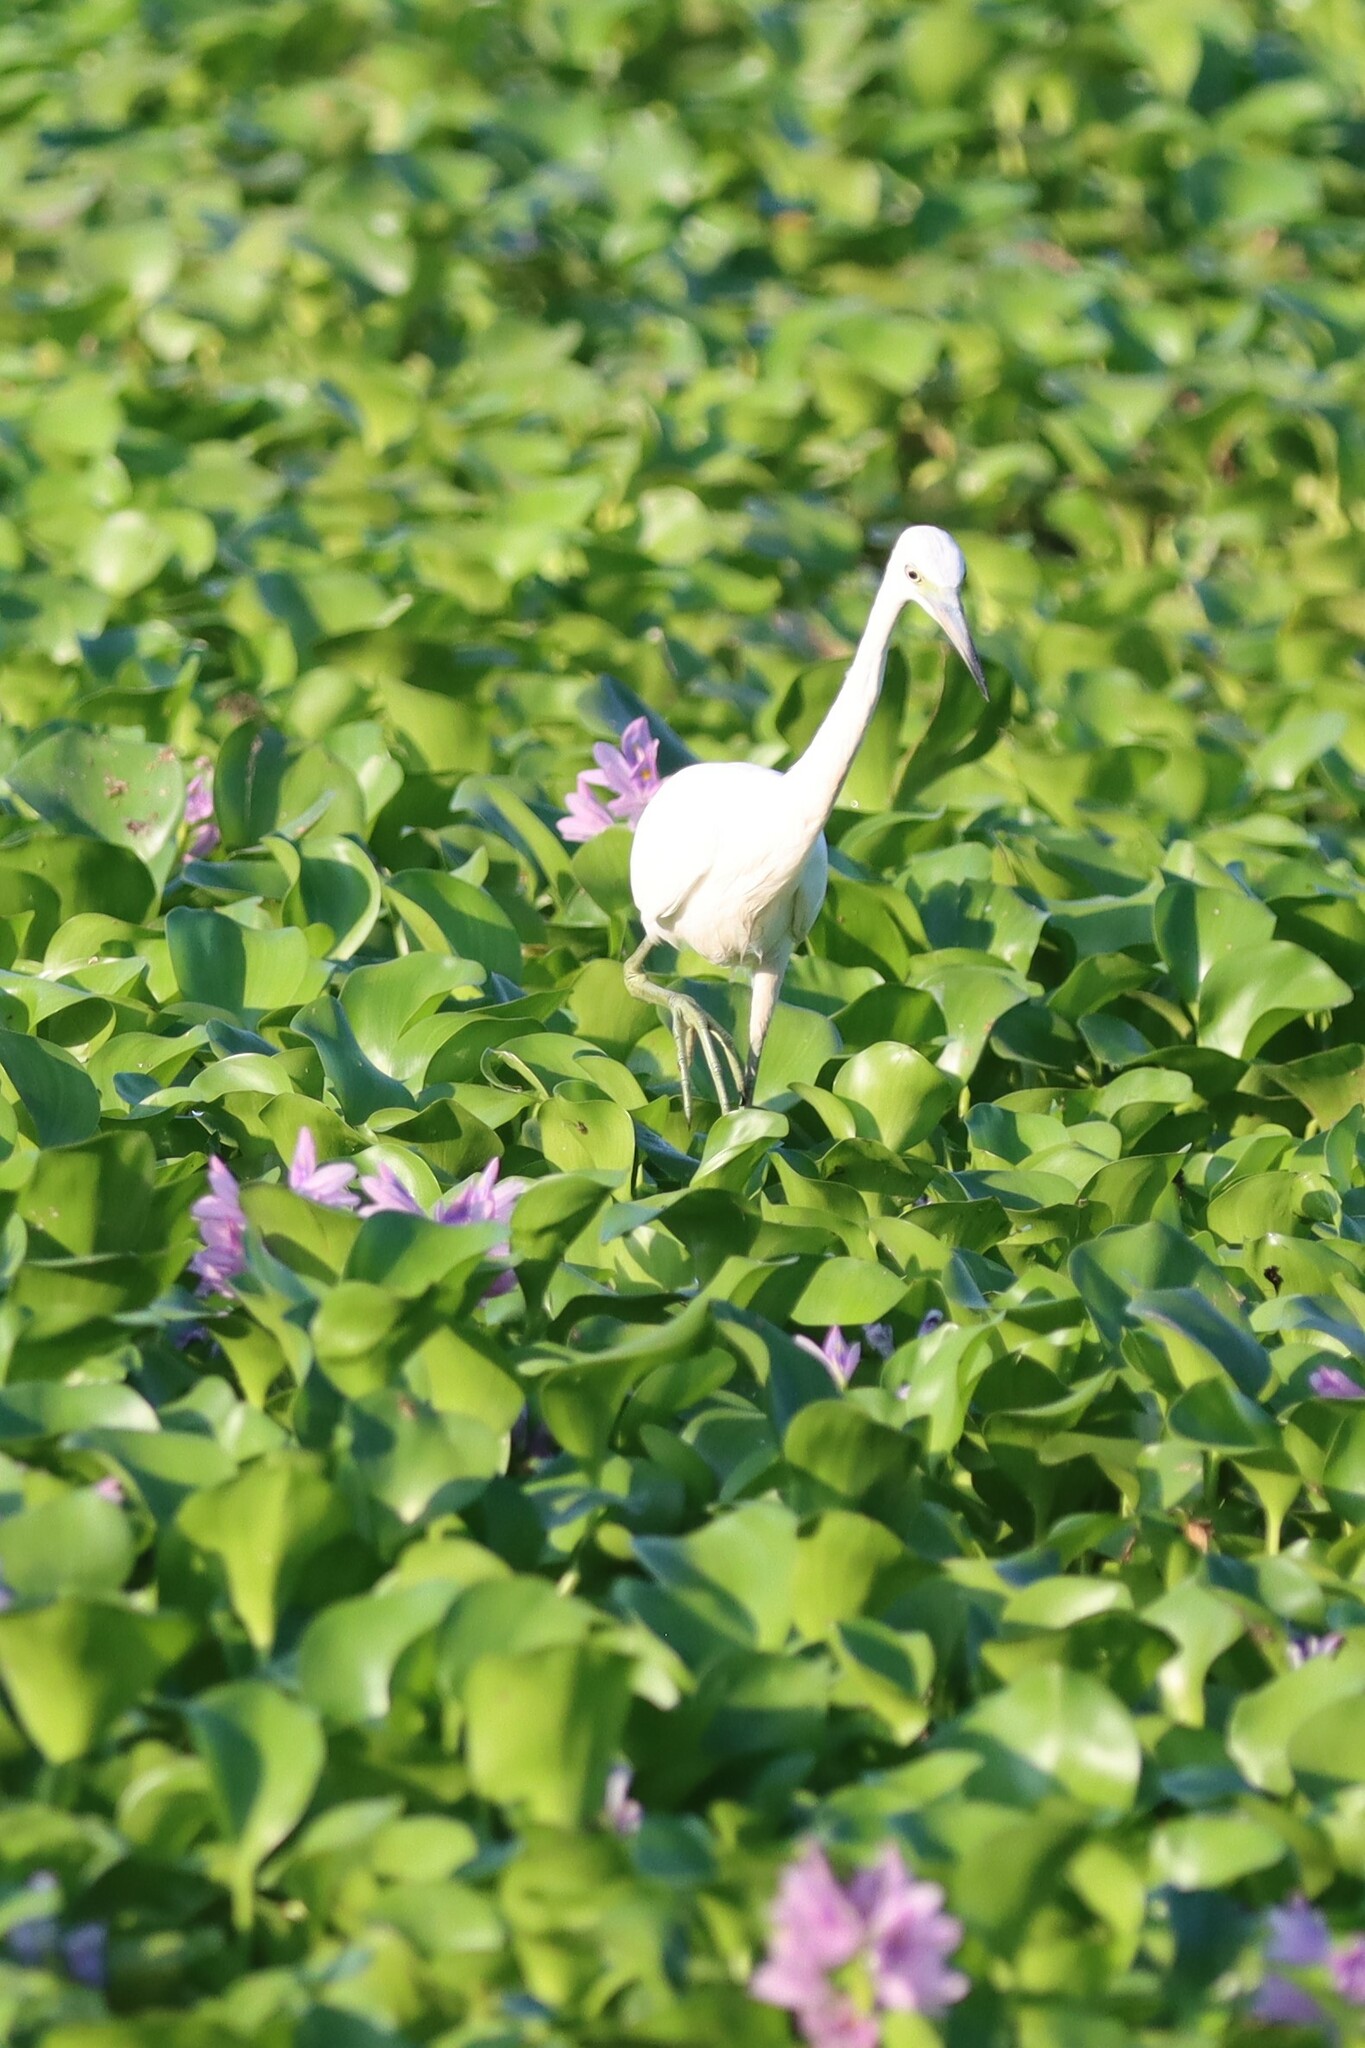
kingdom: Animalia
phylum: Chordata
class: Aves
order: Pelecaniformes
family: Ardeidae
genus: Egretta
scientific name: Egretta caerulea
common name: Little blue heron
